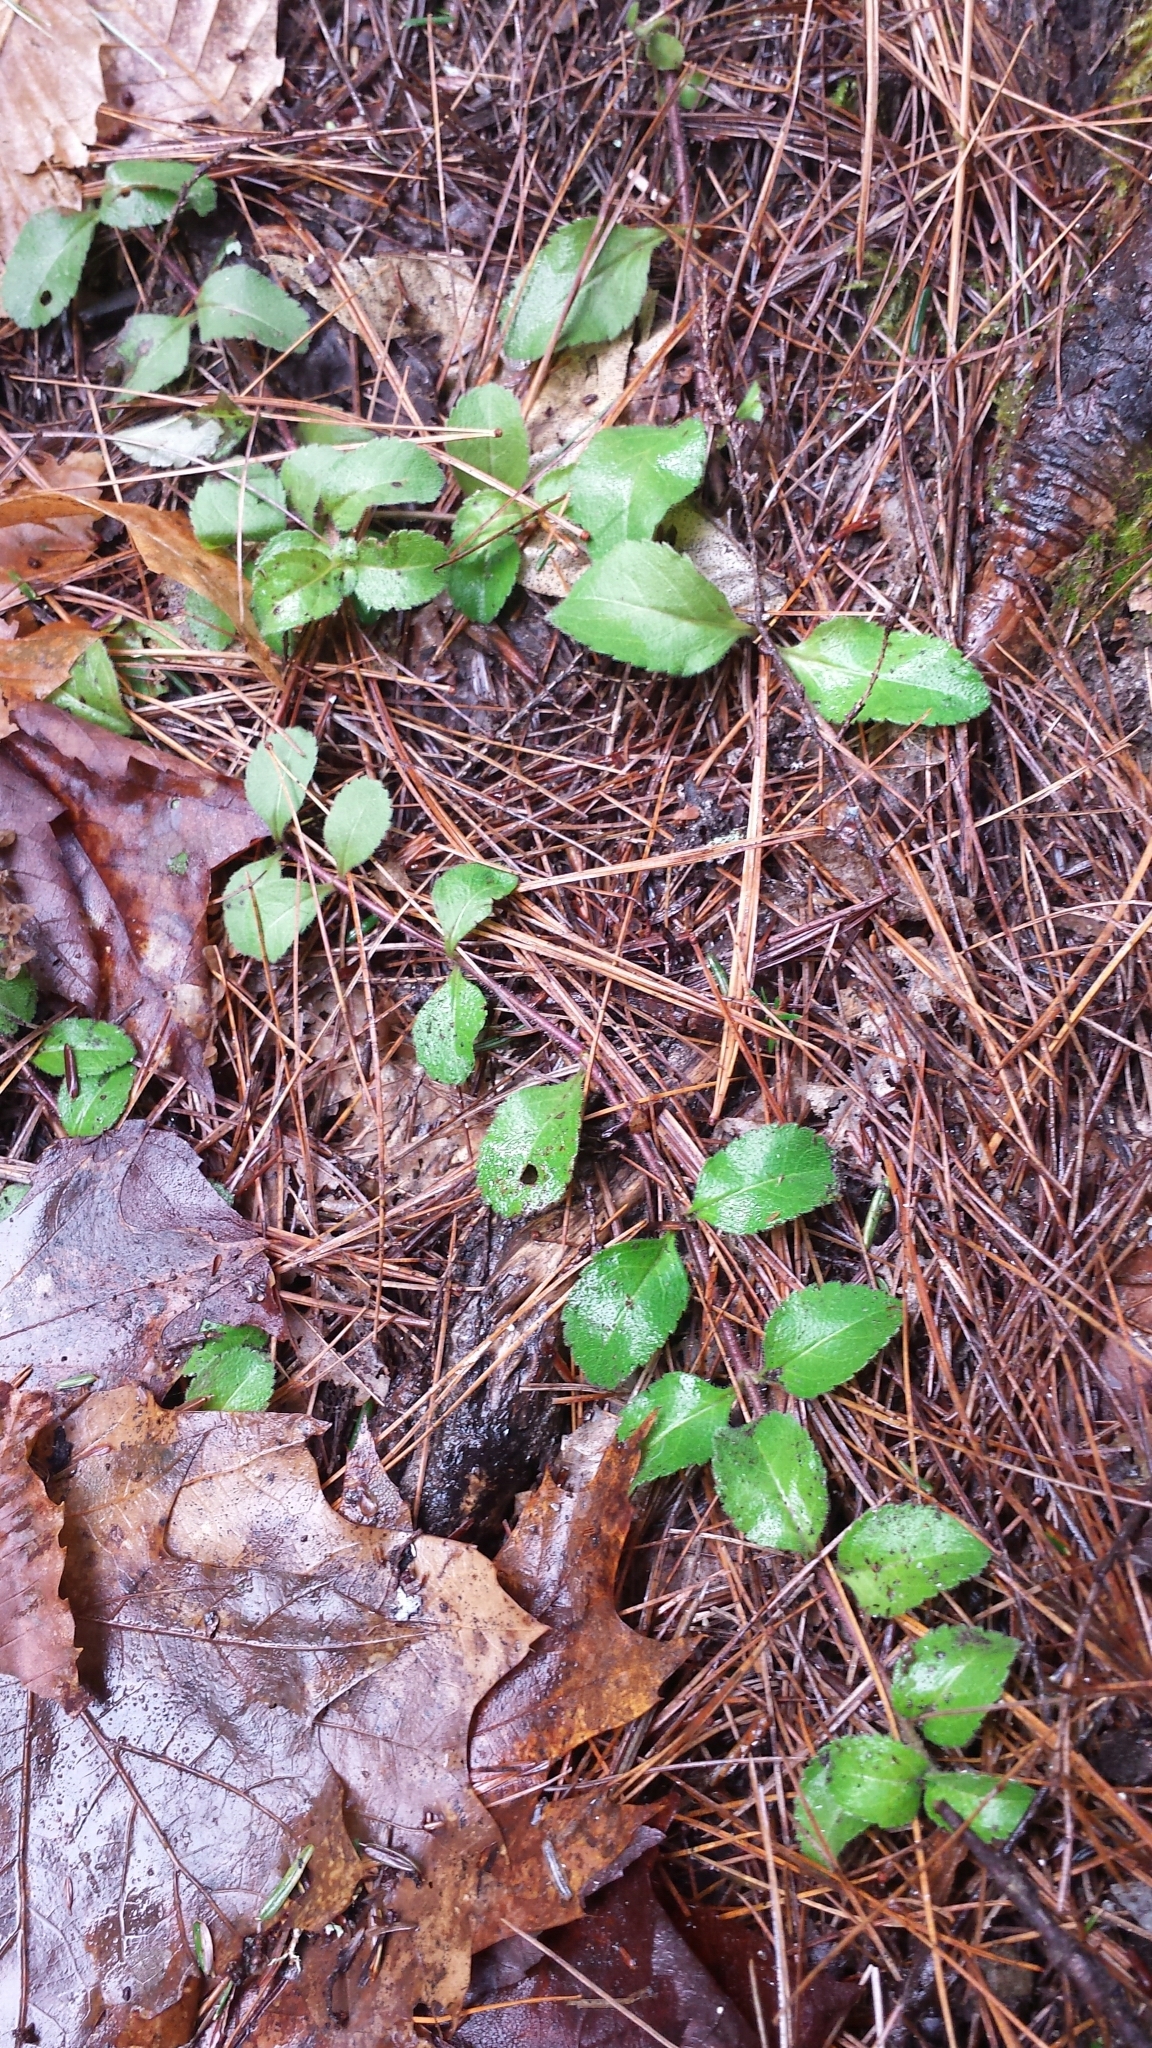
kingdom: Plantae
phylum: Tracheophyta
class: Magnoliopsida
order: Lamiales
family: Plantaginaceae
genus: Veronica
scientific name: Veronica officinalis
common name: Common speedwell
